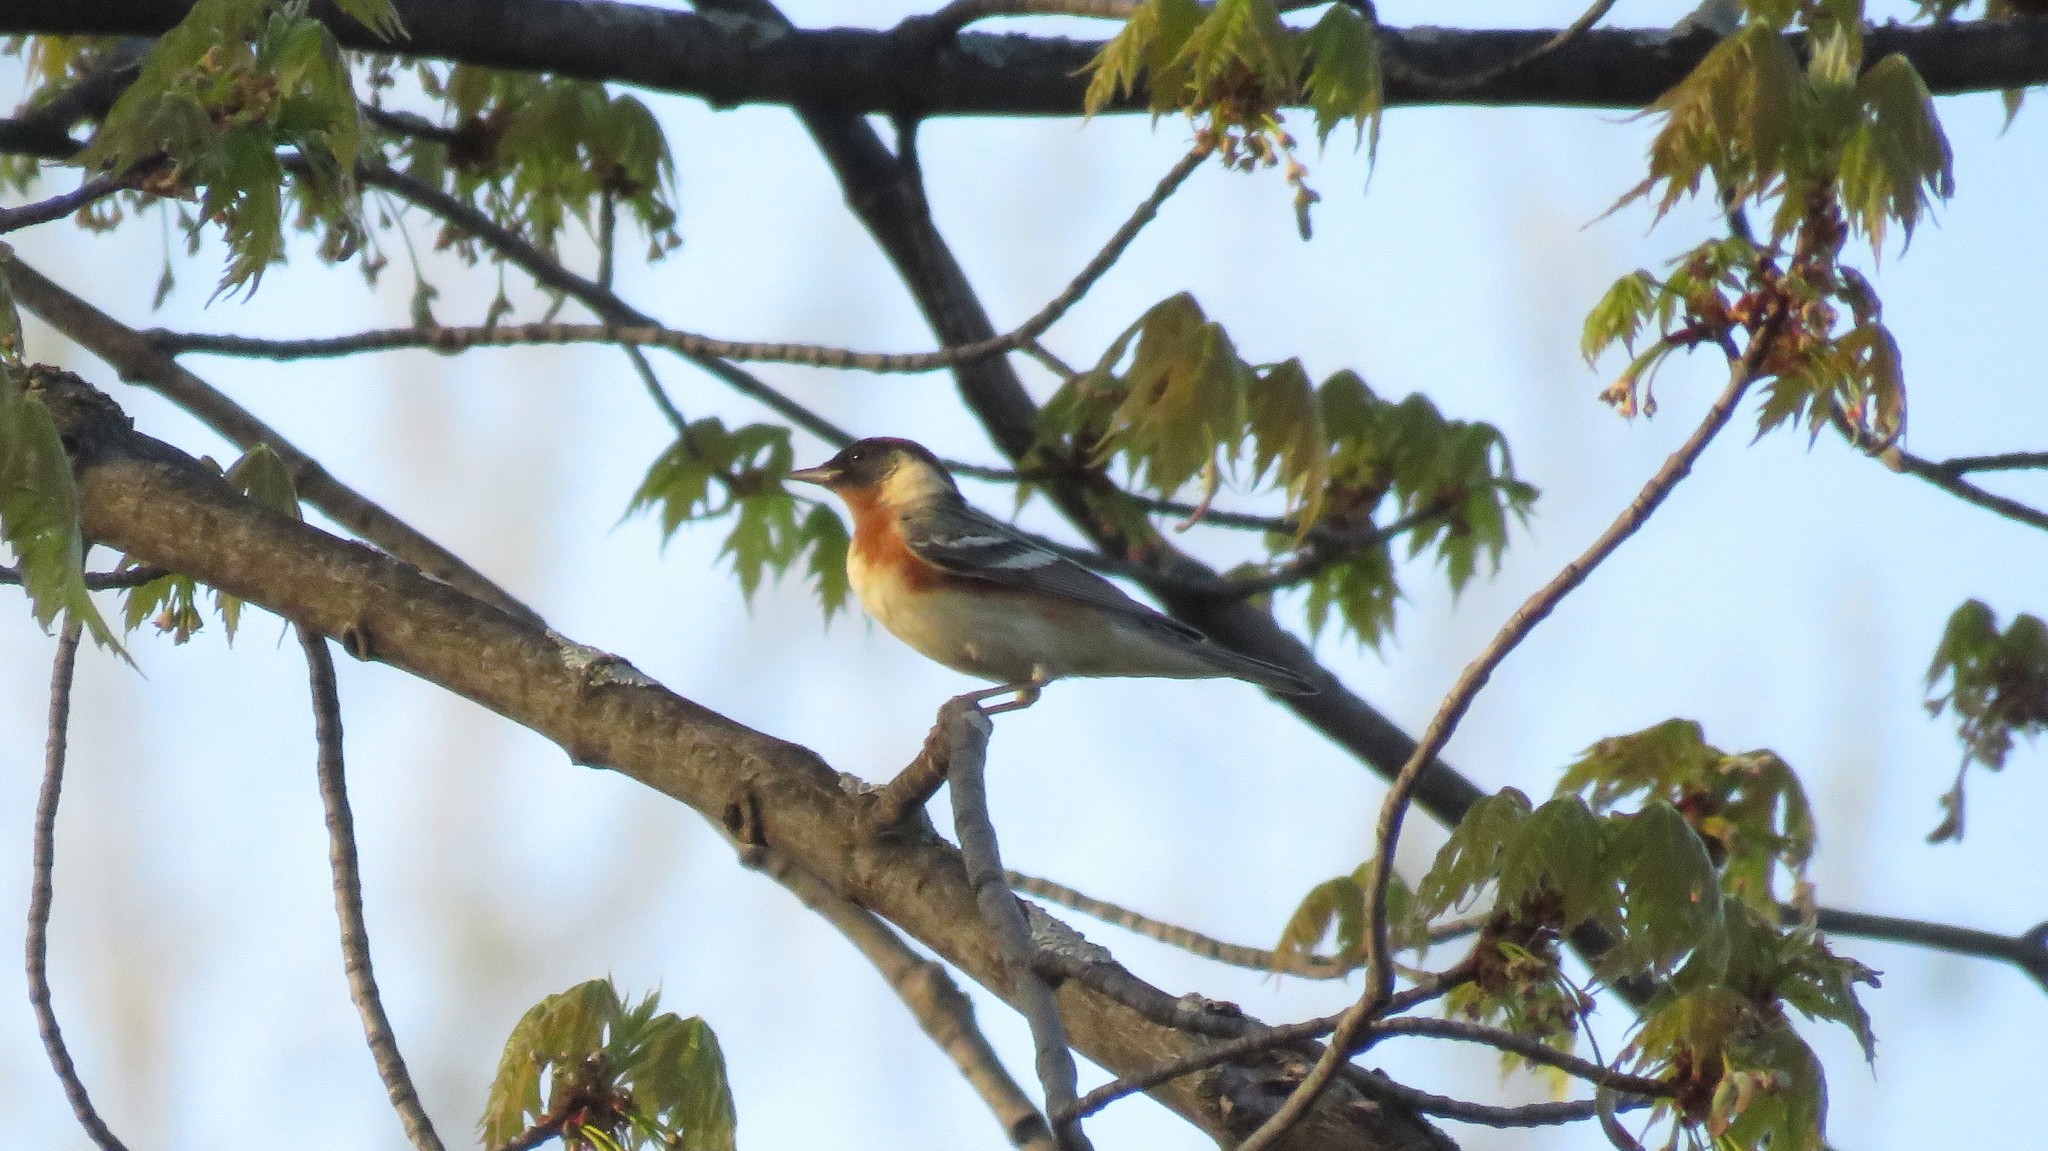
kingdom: Animalia
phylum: Chordata
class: Aves
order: Passeriformes
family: Parulidae
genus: Setophaga
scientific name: Setophaga castanea
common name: Bay-breasted warbler
